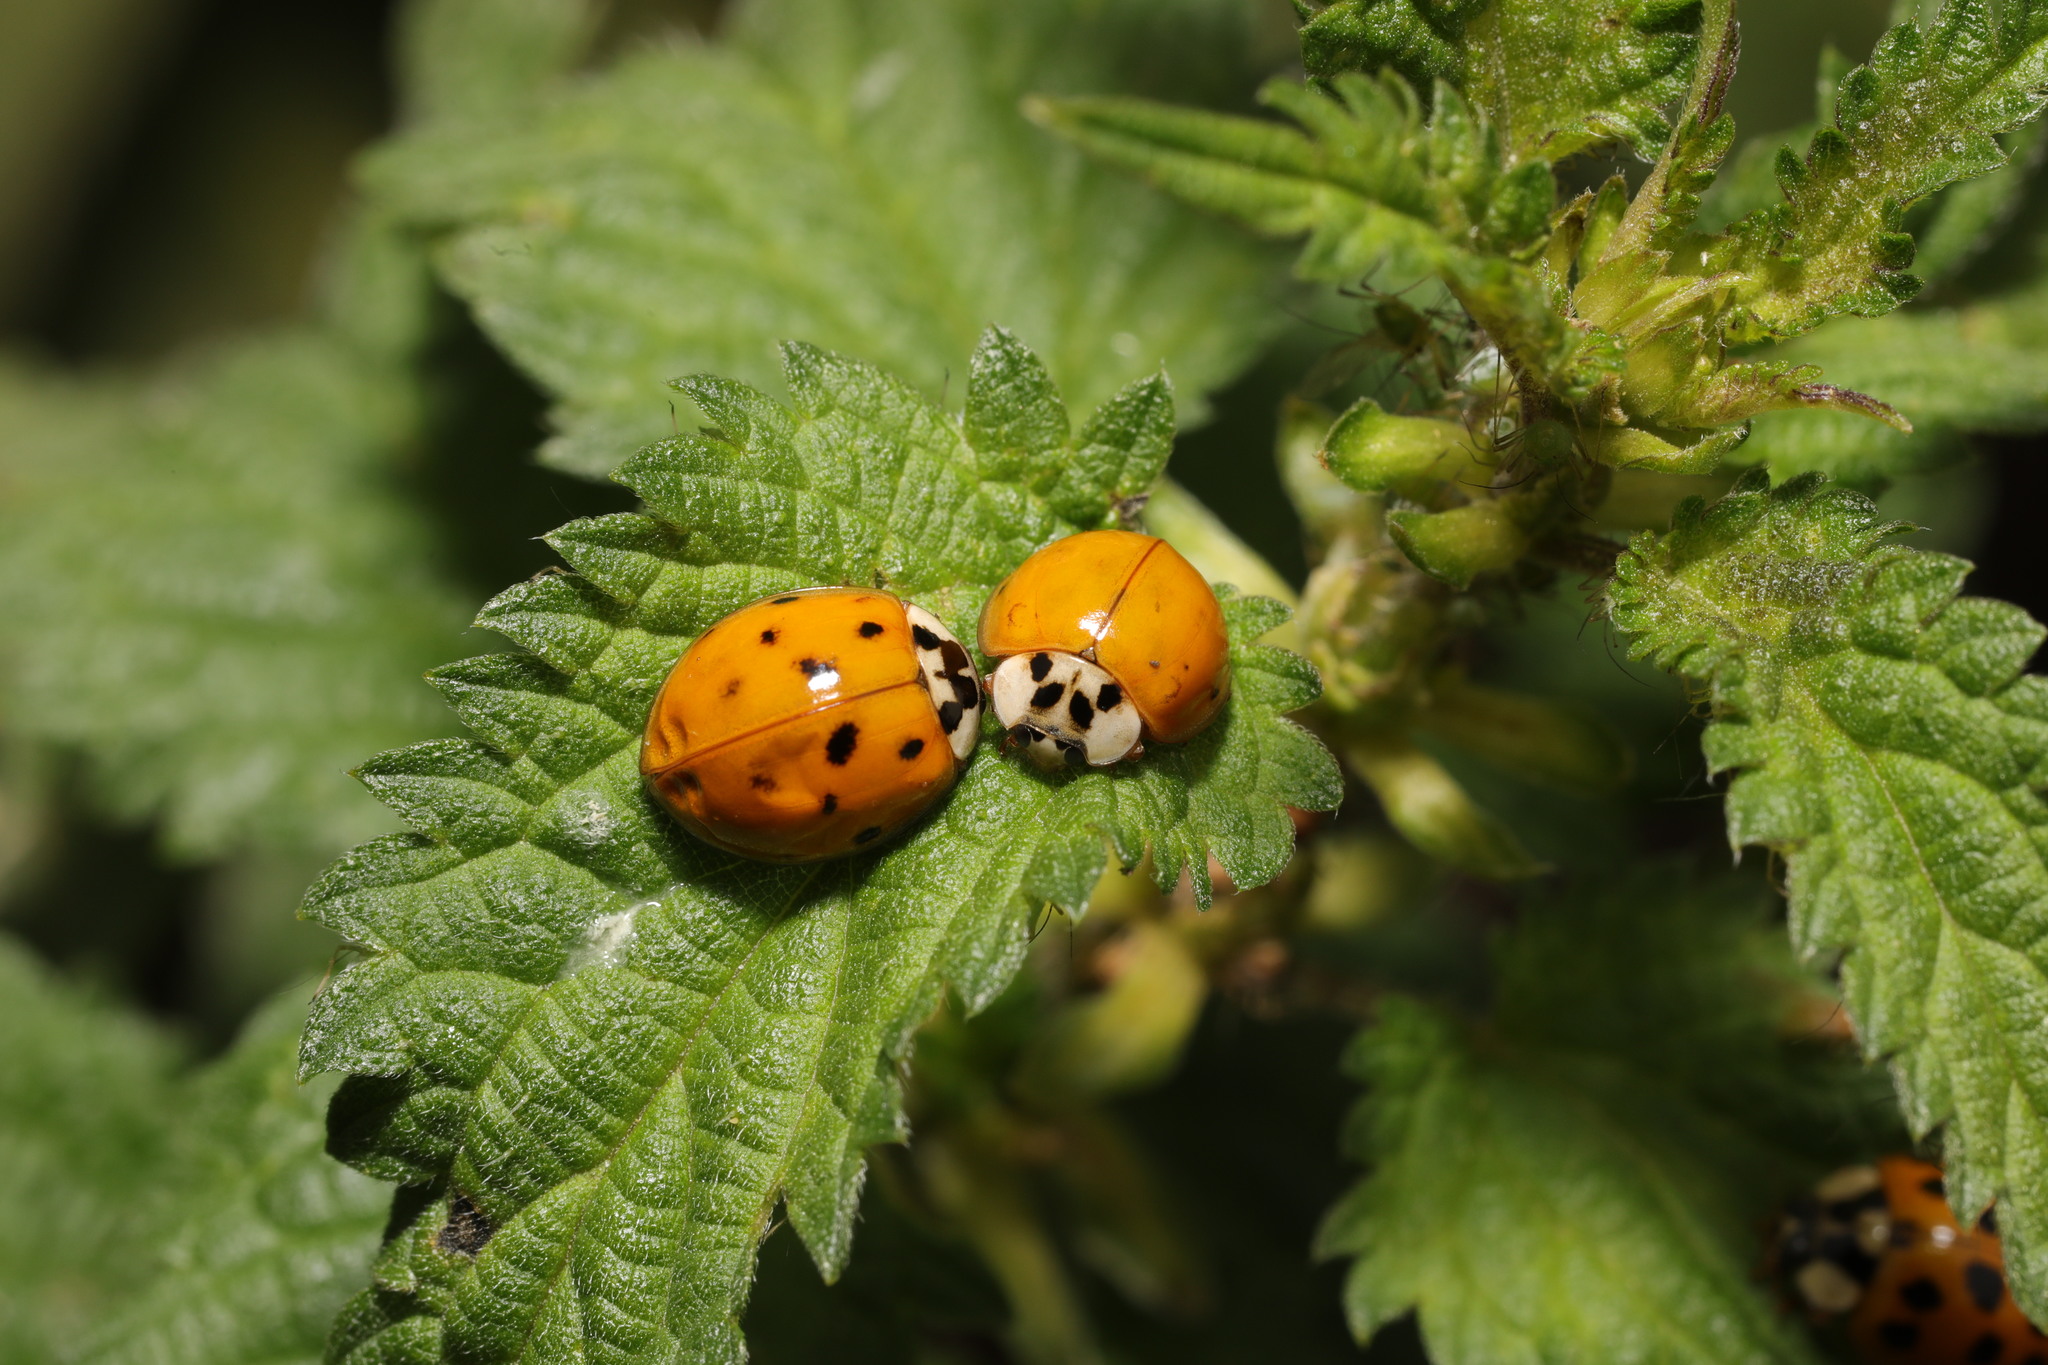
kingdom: Animalia
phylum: Arthropoda
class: Insecta
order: Coleoptera
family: Coccinellidae
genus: Harmonia
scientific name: Harmonia axyridis
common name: Harlequin ladybird
